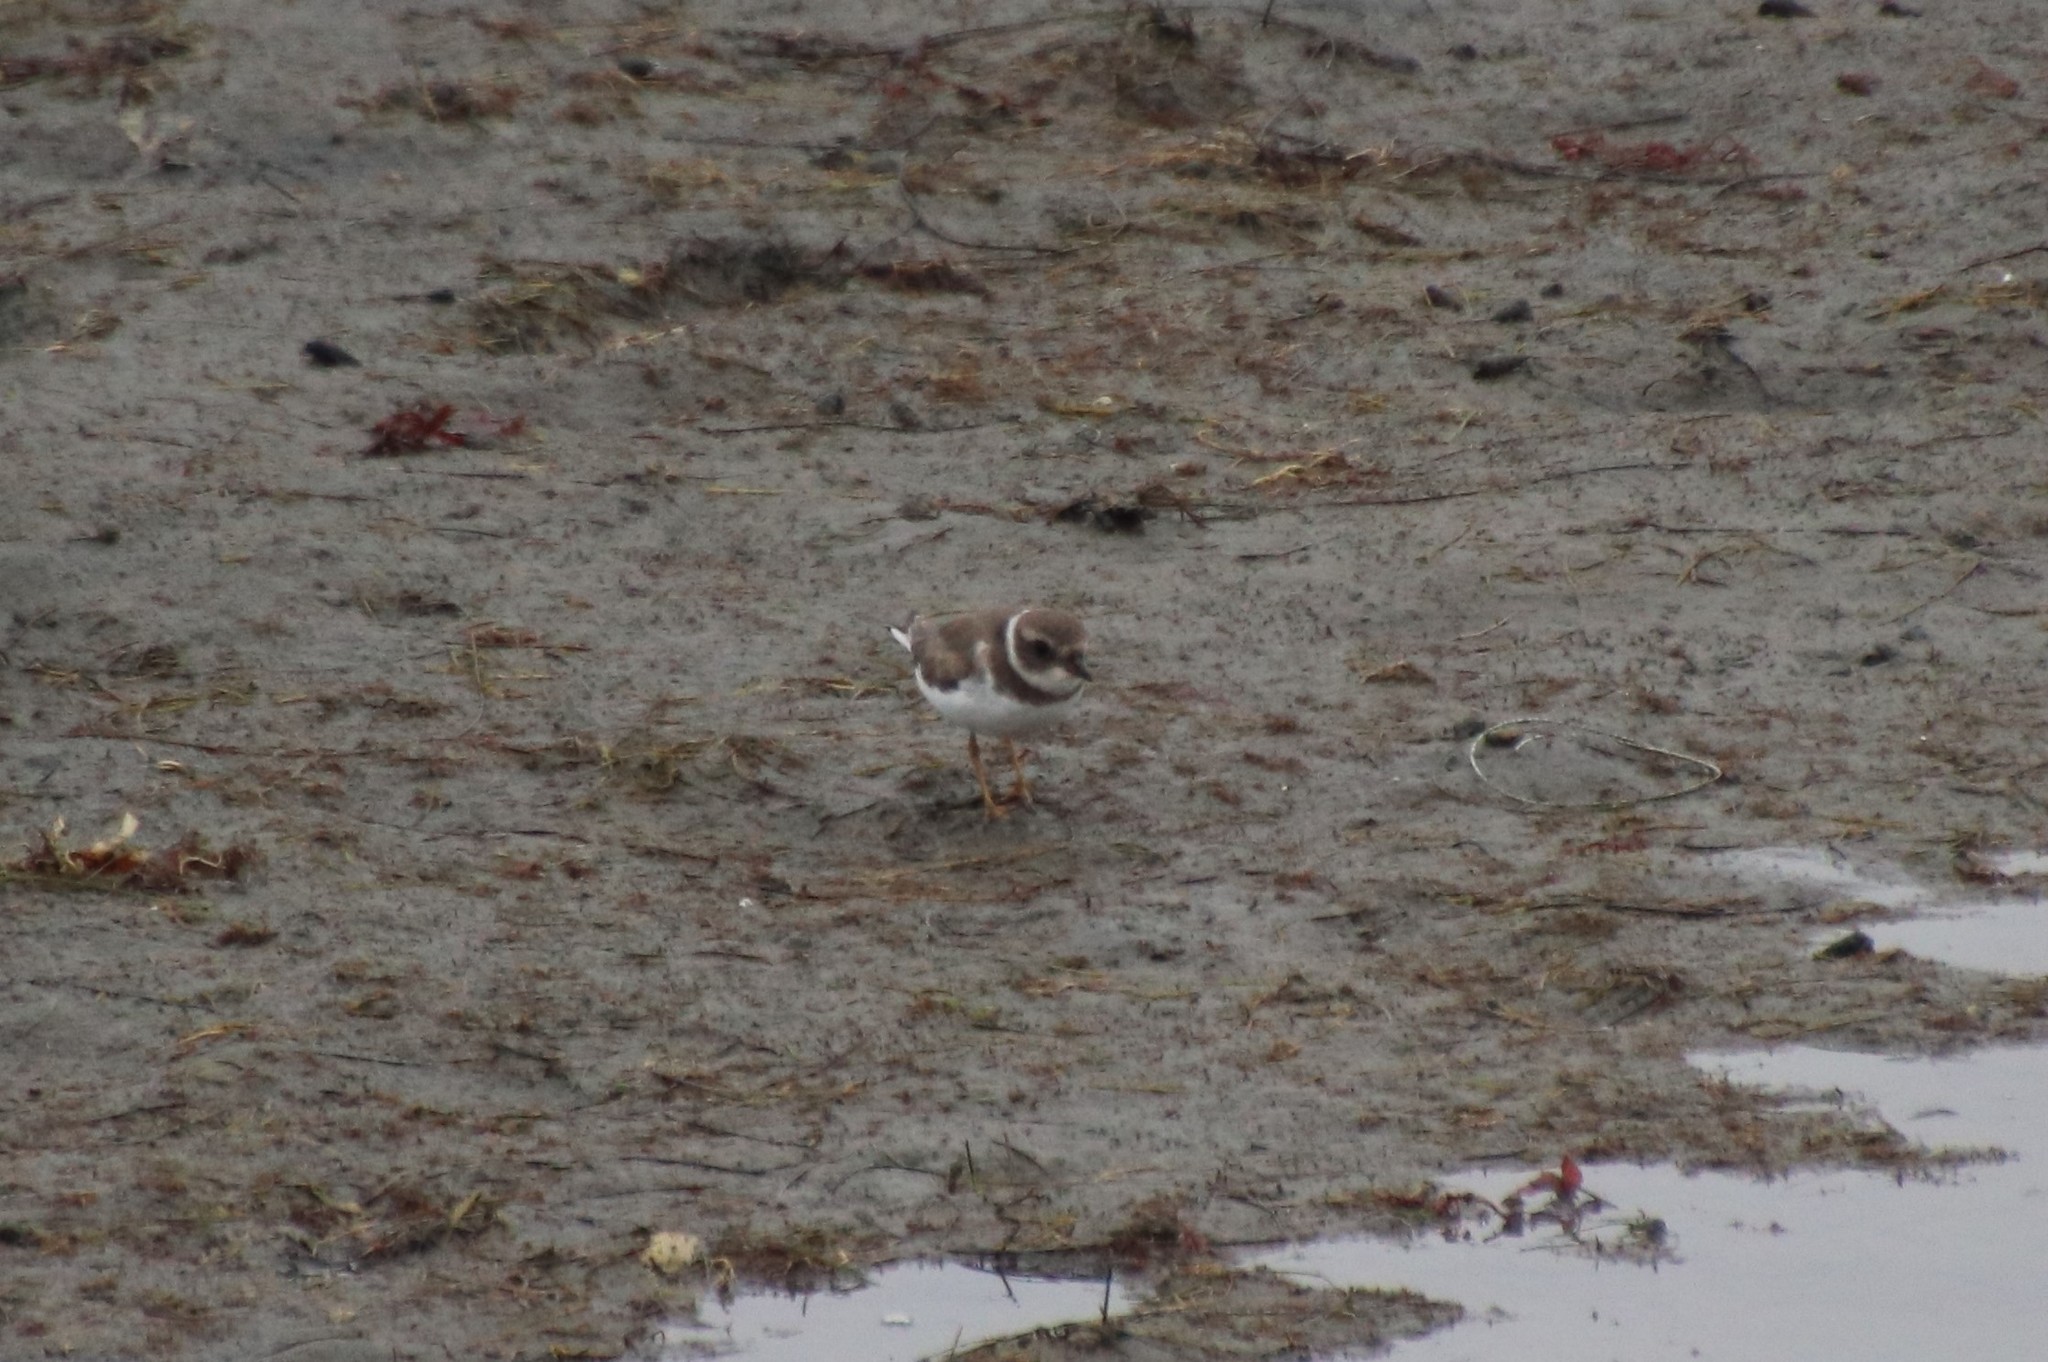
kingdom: Animalia
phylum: Chordata
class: Aves
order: Charadriiformes
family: Charadriidae
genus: Charadrius
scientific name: Charadrius semipalmatus
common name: Semipalmated plover
